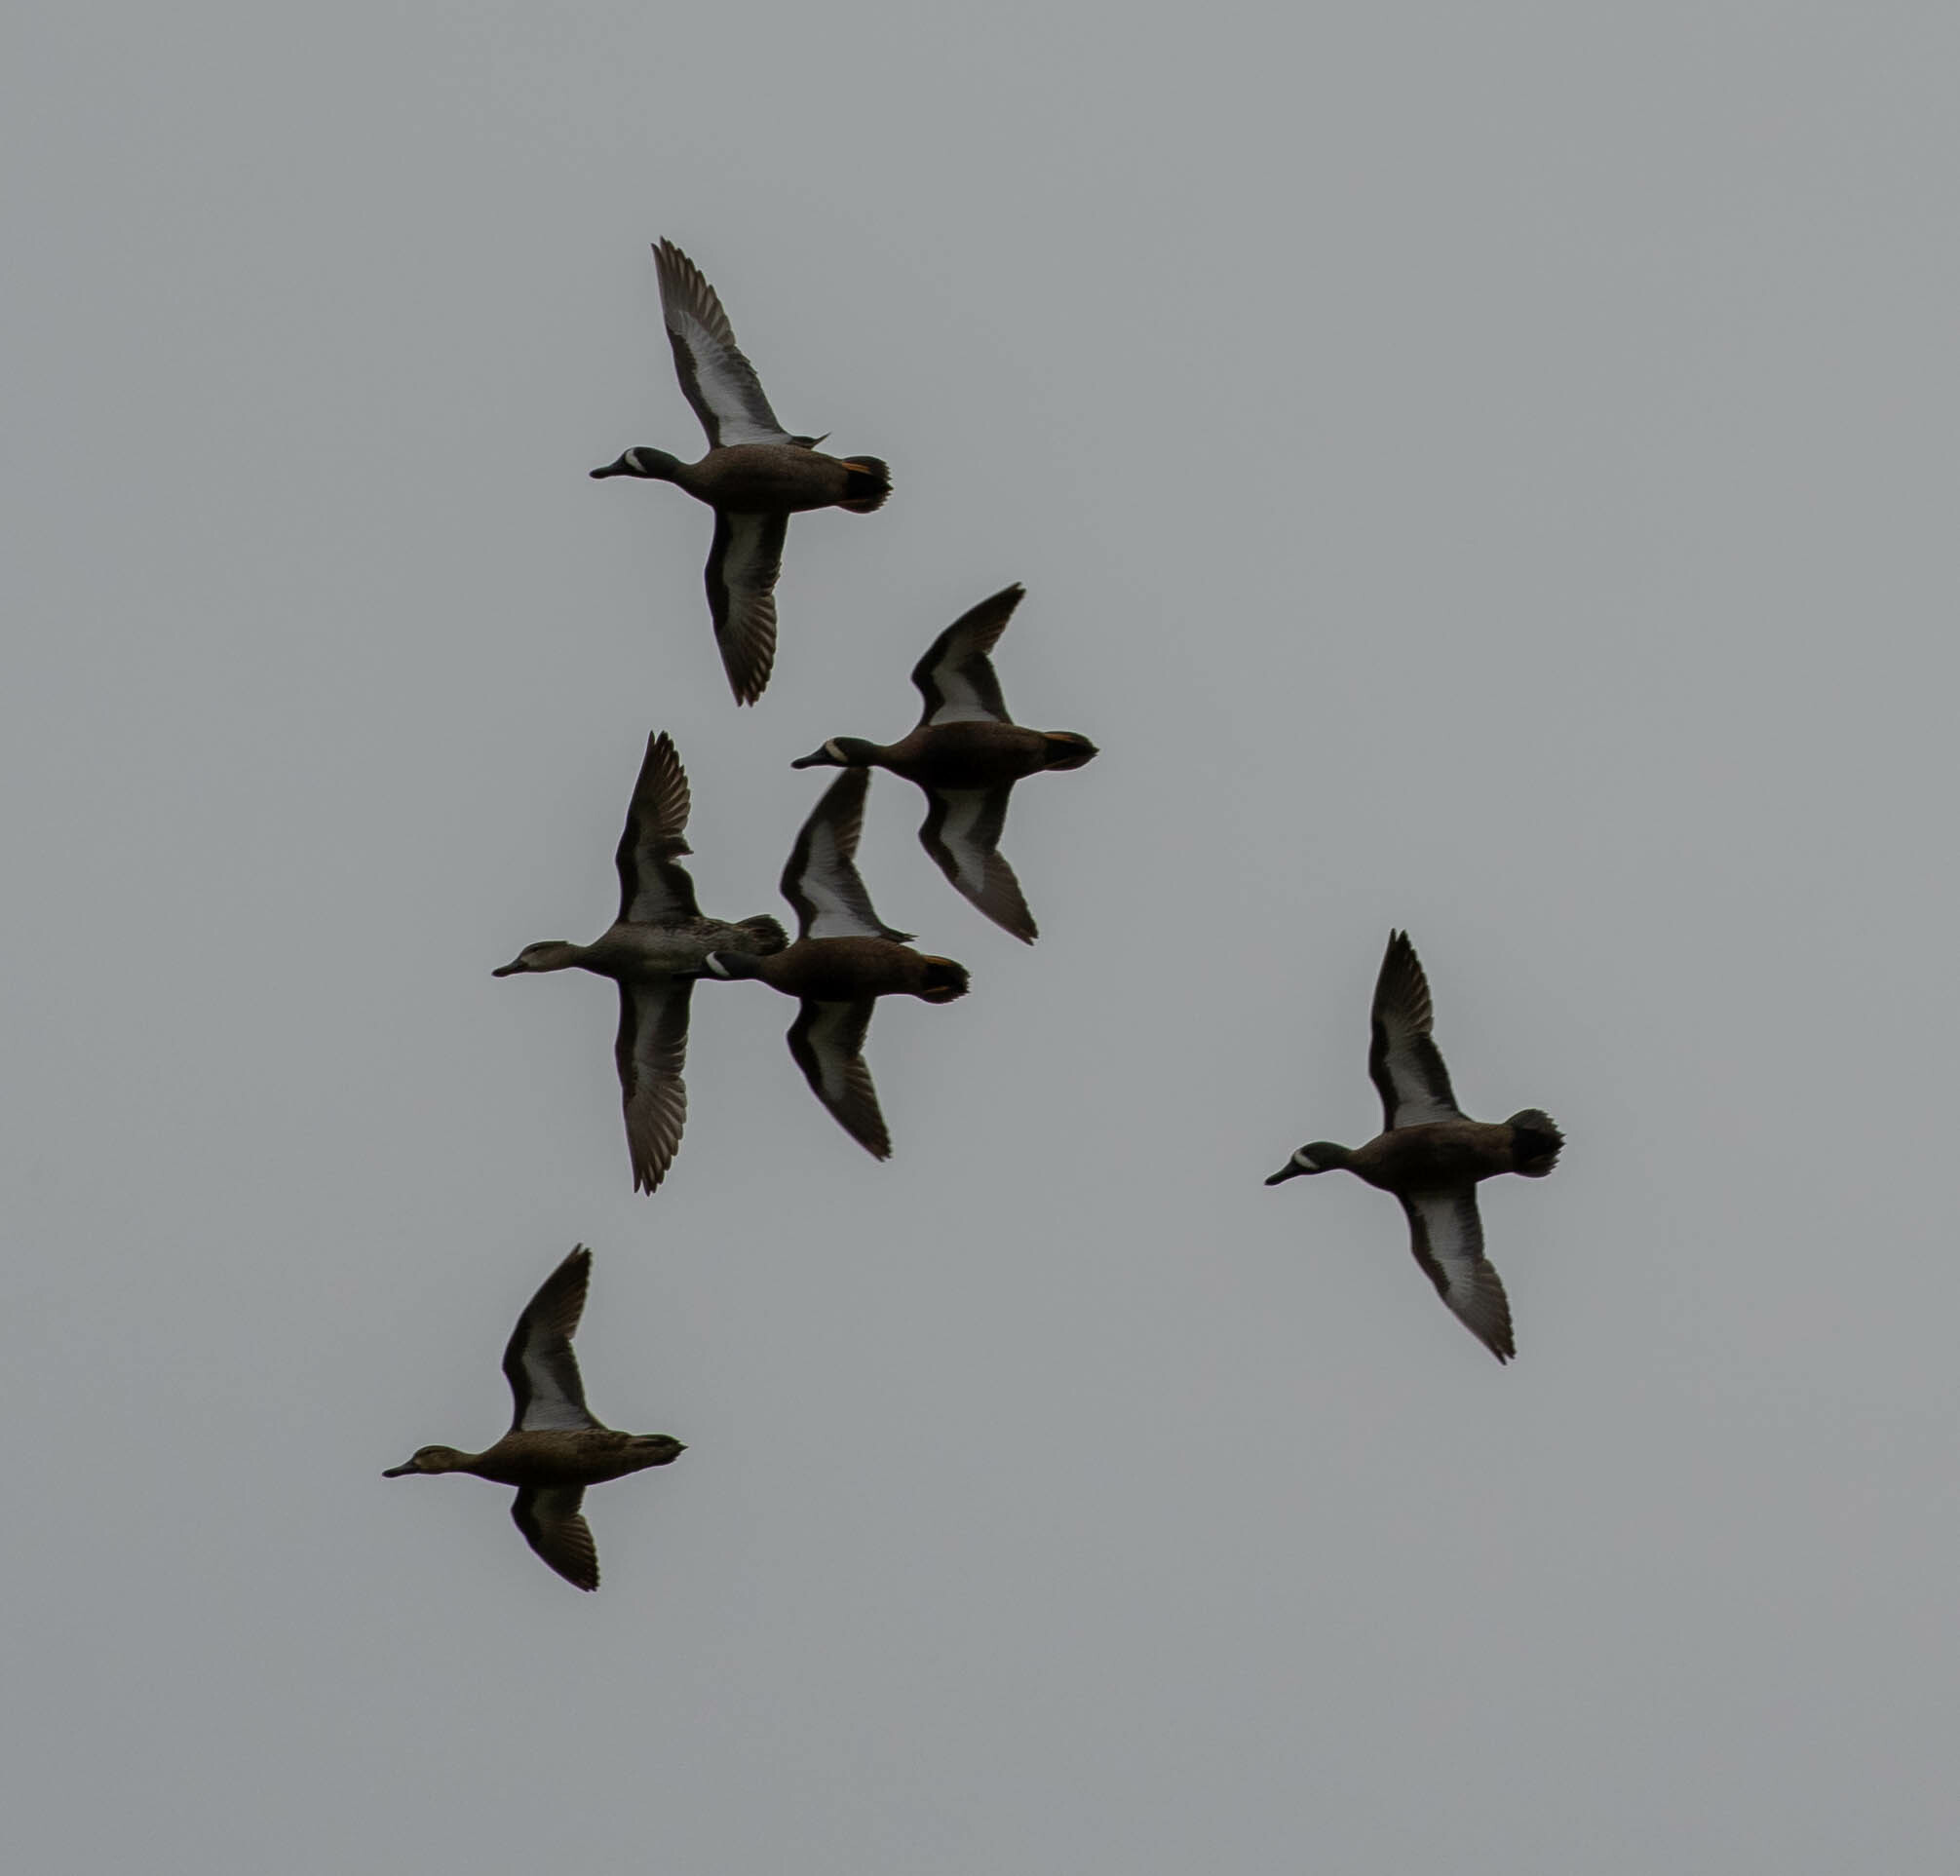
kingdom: Animalia
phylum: Chordata
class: Aves
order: Anseriformes
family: Anatidae
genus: Spatula
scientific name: Spatula discors
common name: Blue-winged teal
